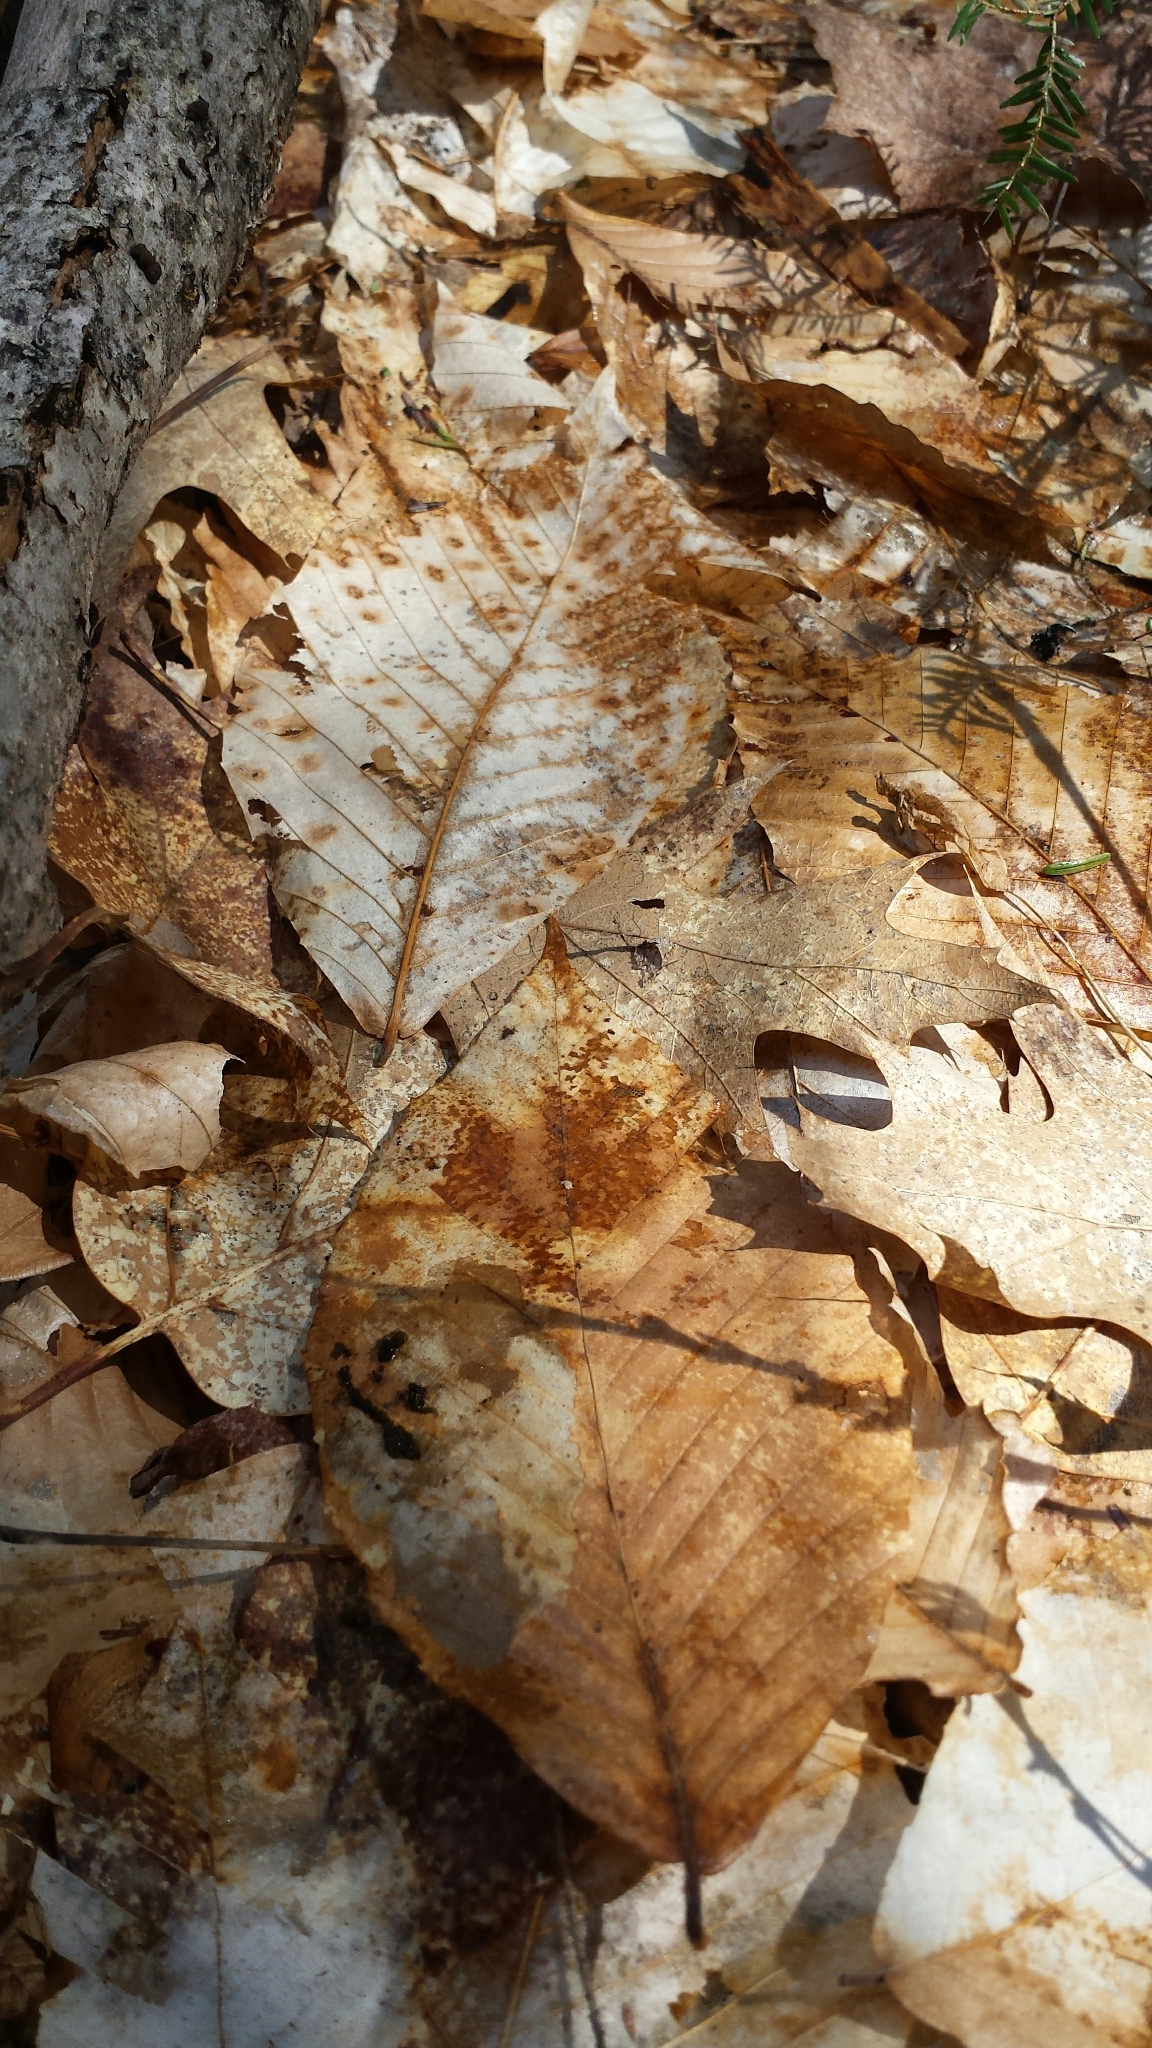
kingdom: Plantae
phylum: Tracheophyta
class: Magnoliopsida
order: Fagales
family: Fagaceae
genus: Fagus
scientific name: Fagus grandifolia
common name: American beech
